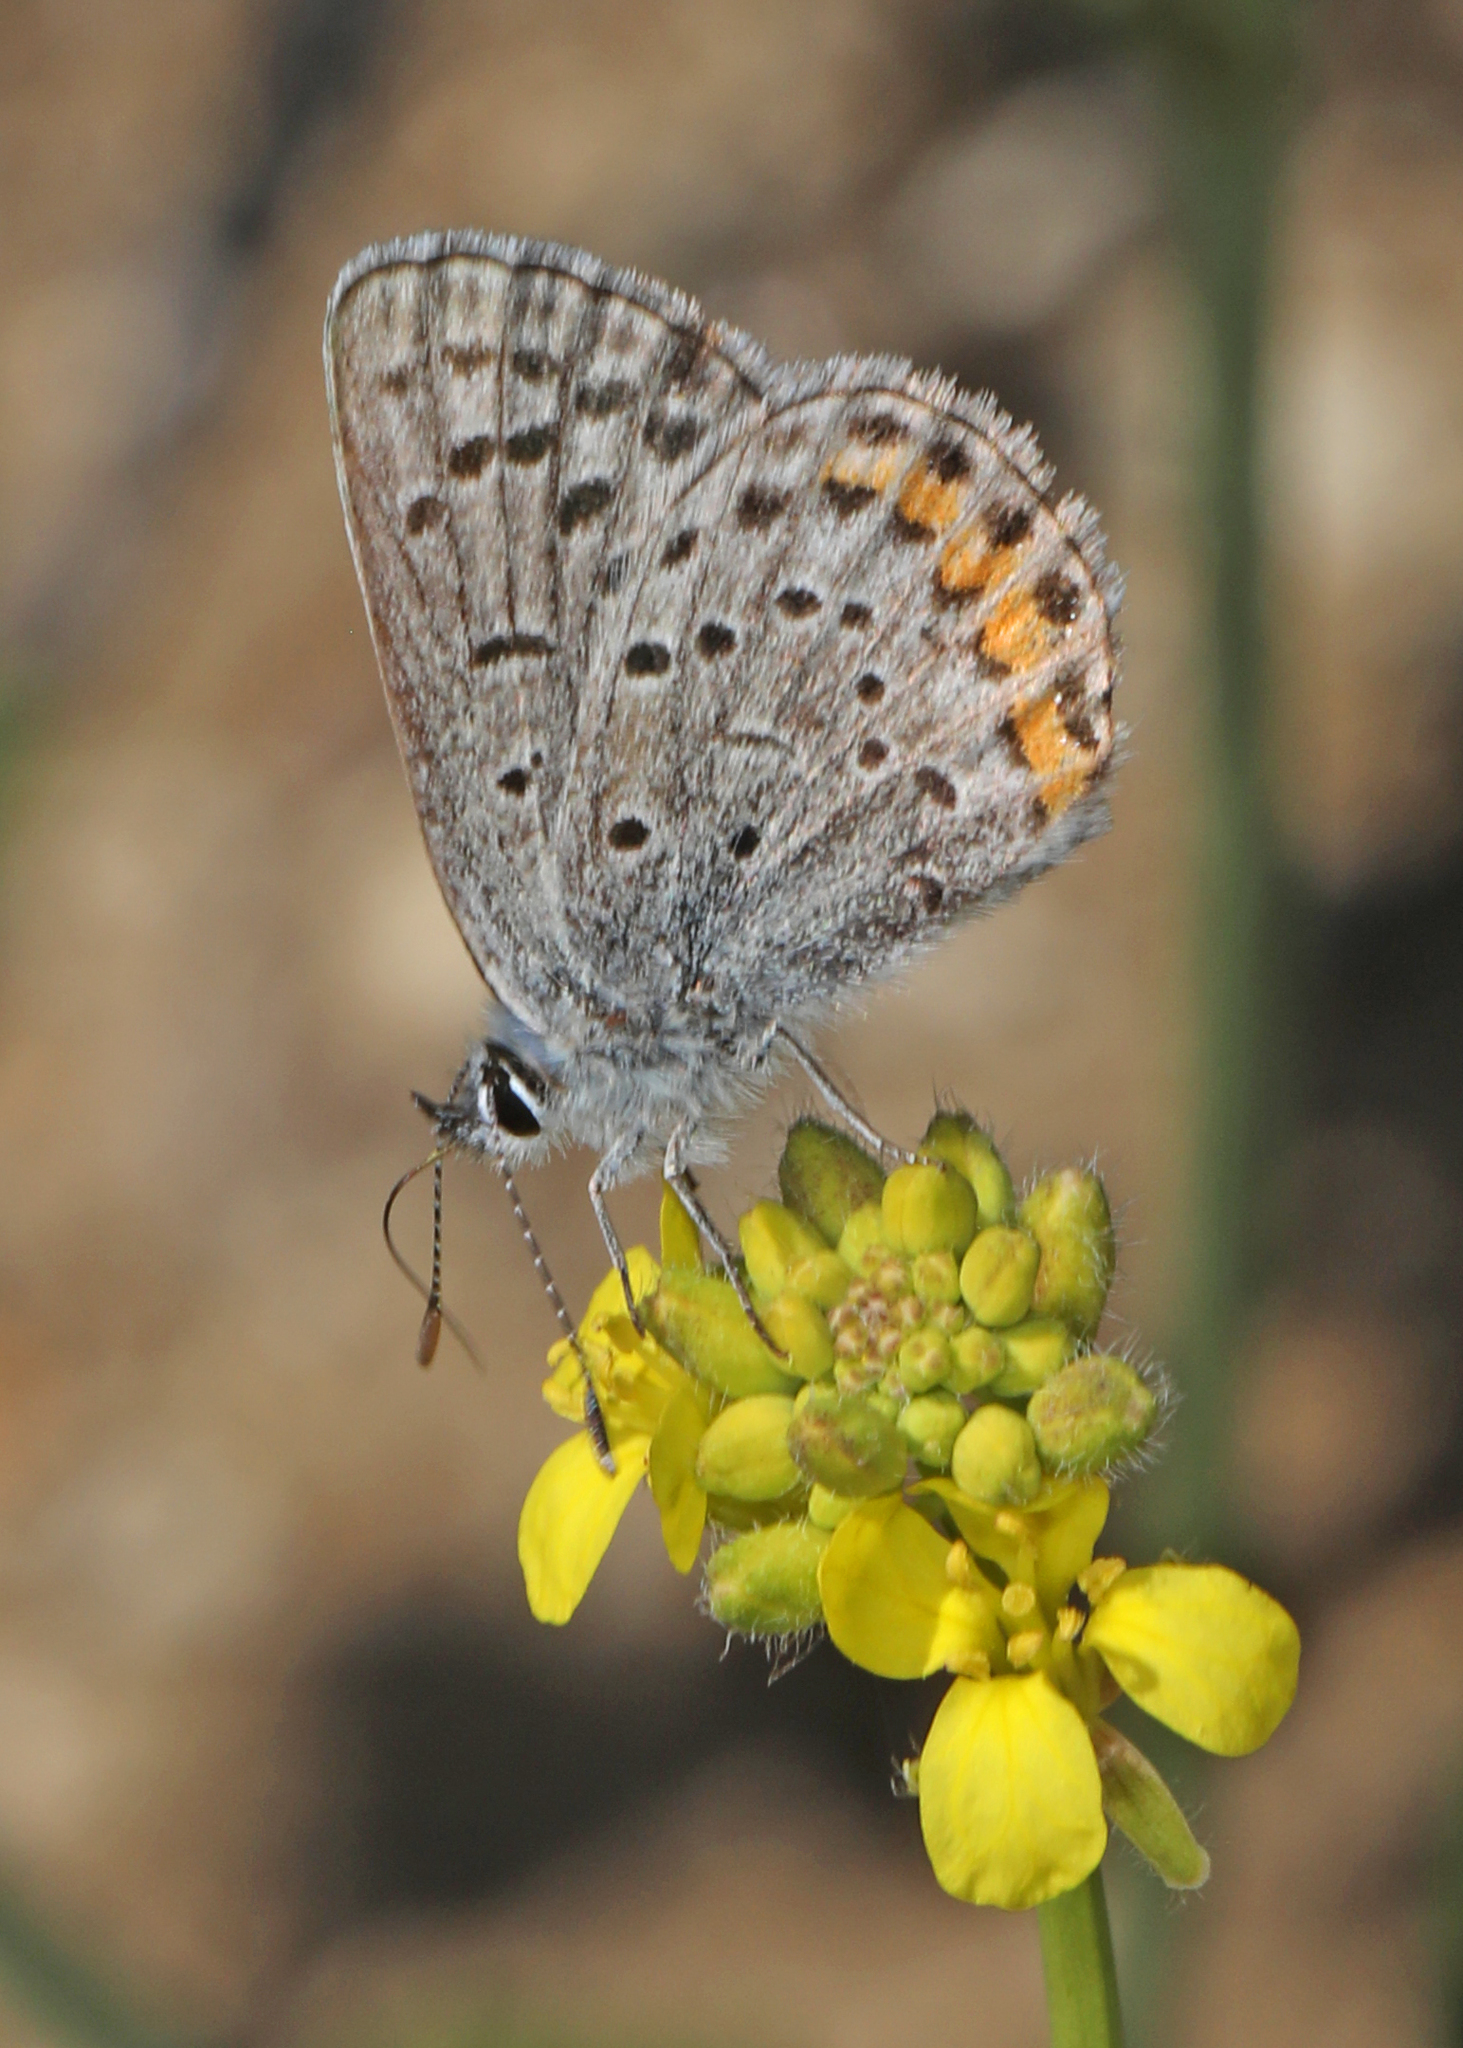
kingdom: Animalia
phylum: Arthropoda
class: Insecta
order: Lepidoptera
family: Lycaenidae
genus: Icaricia
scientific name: Icaricia acmon
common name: Acmon blue
